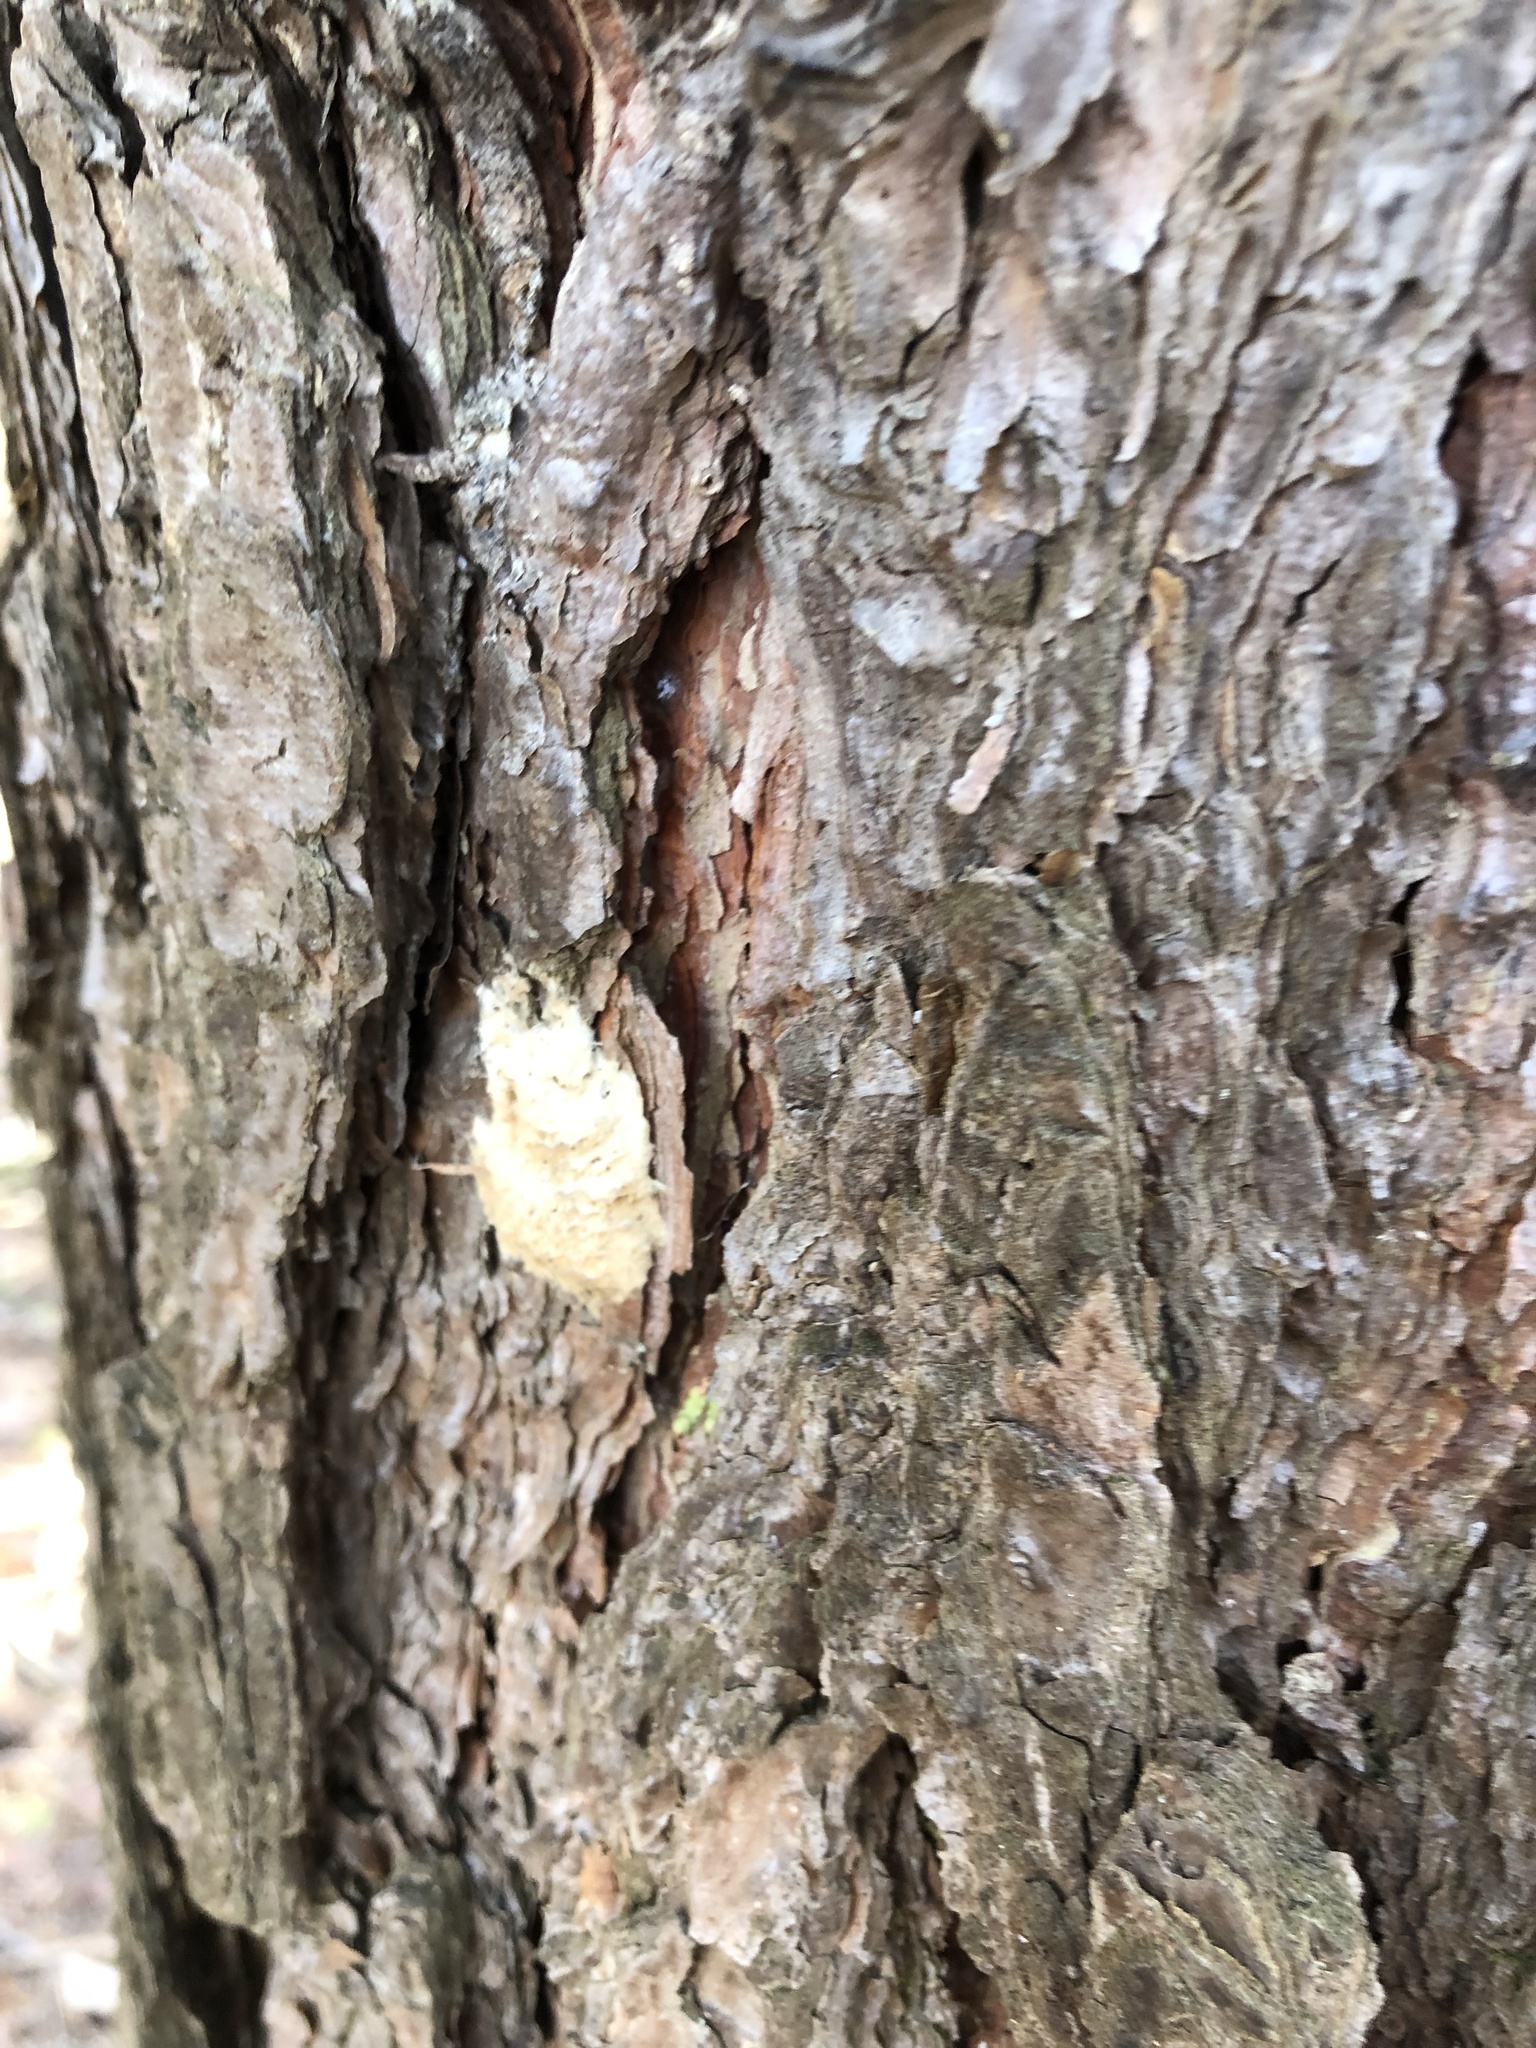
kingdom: Animalia
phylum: Arthropoda
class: Insecta
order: Lepidoptera
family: Erebidae
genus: Lymantria
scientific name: Lymantria dispar
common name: Gypsy moth
